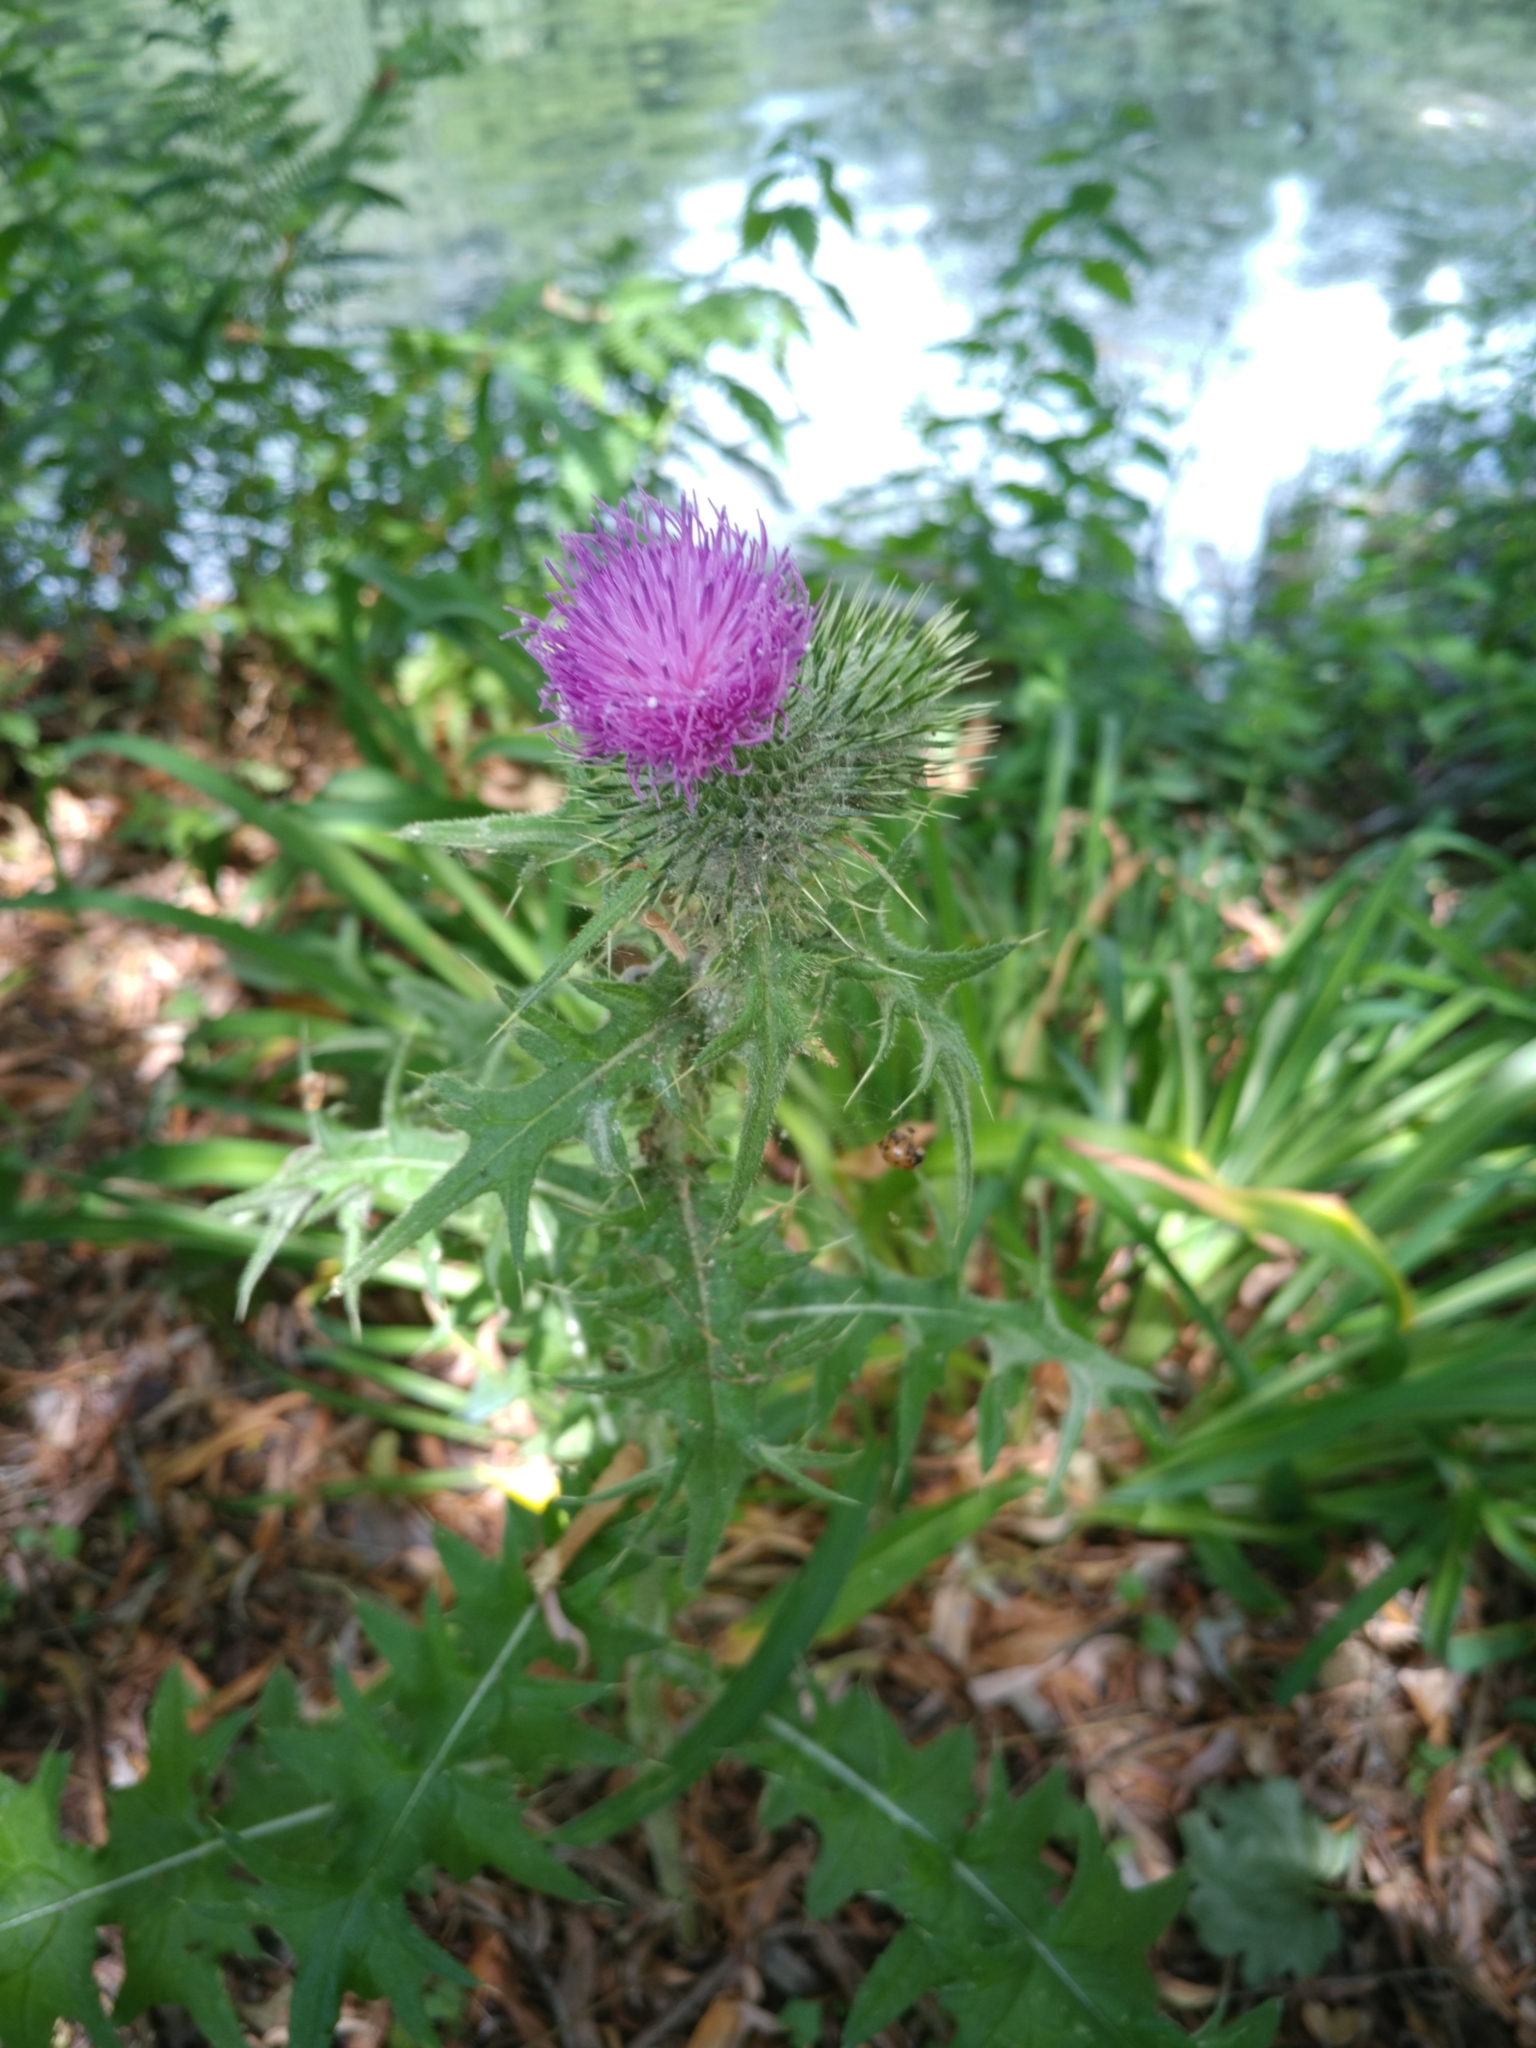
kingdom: Plantae
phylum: Tracheophyta
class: Magnoliopsida
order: Asterales
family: Asteraceae
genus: Cirsium
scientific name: Cirsium vulgare
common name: Bull thistle
